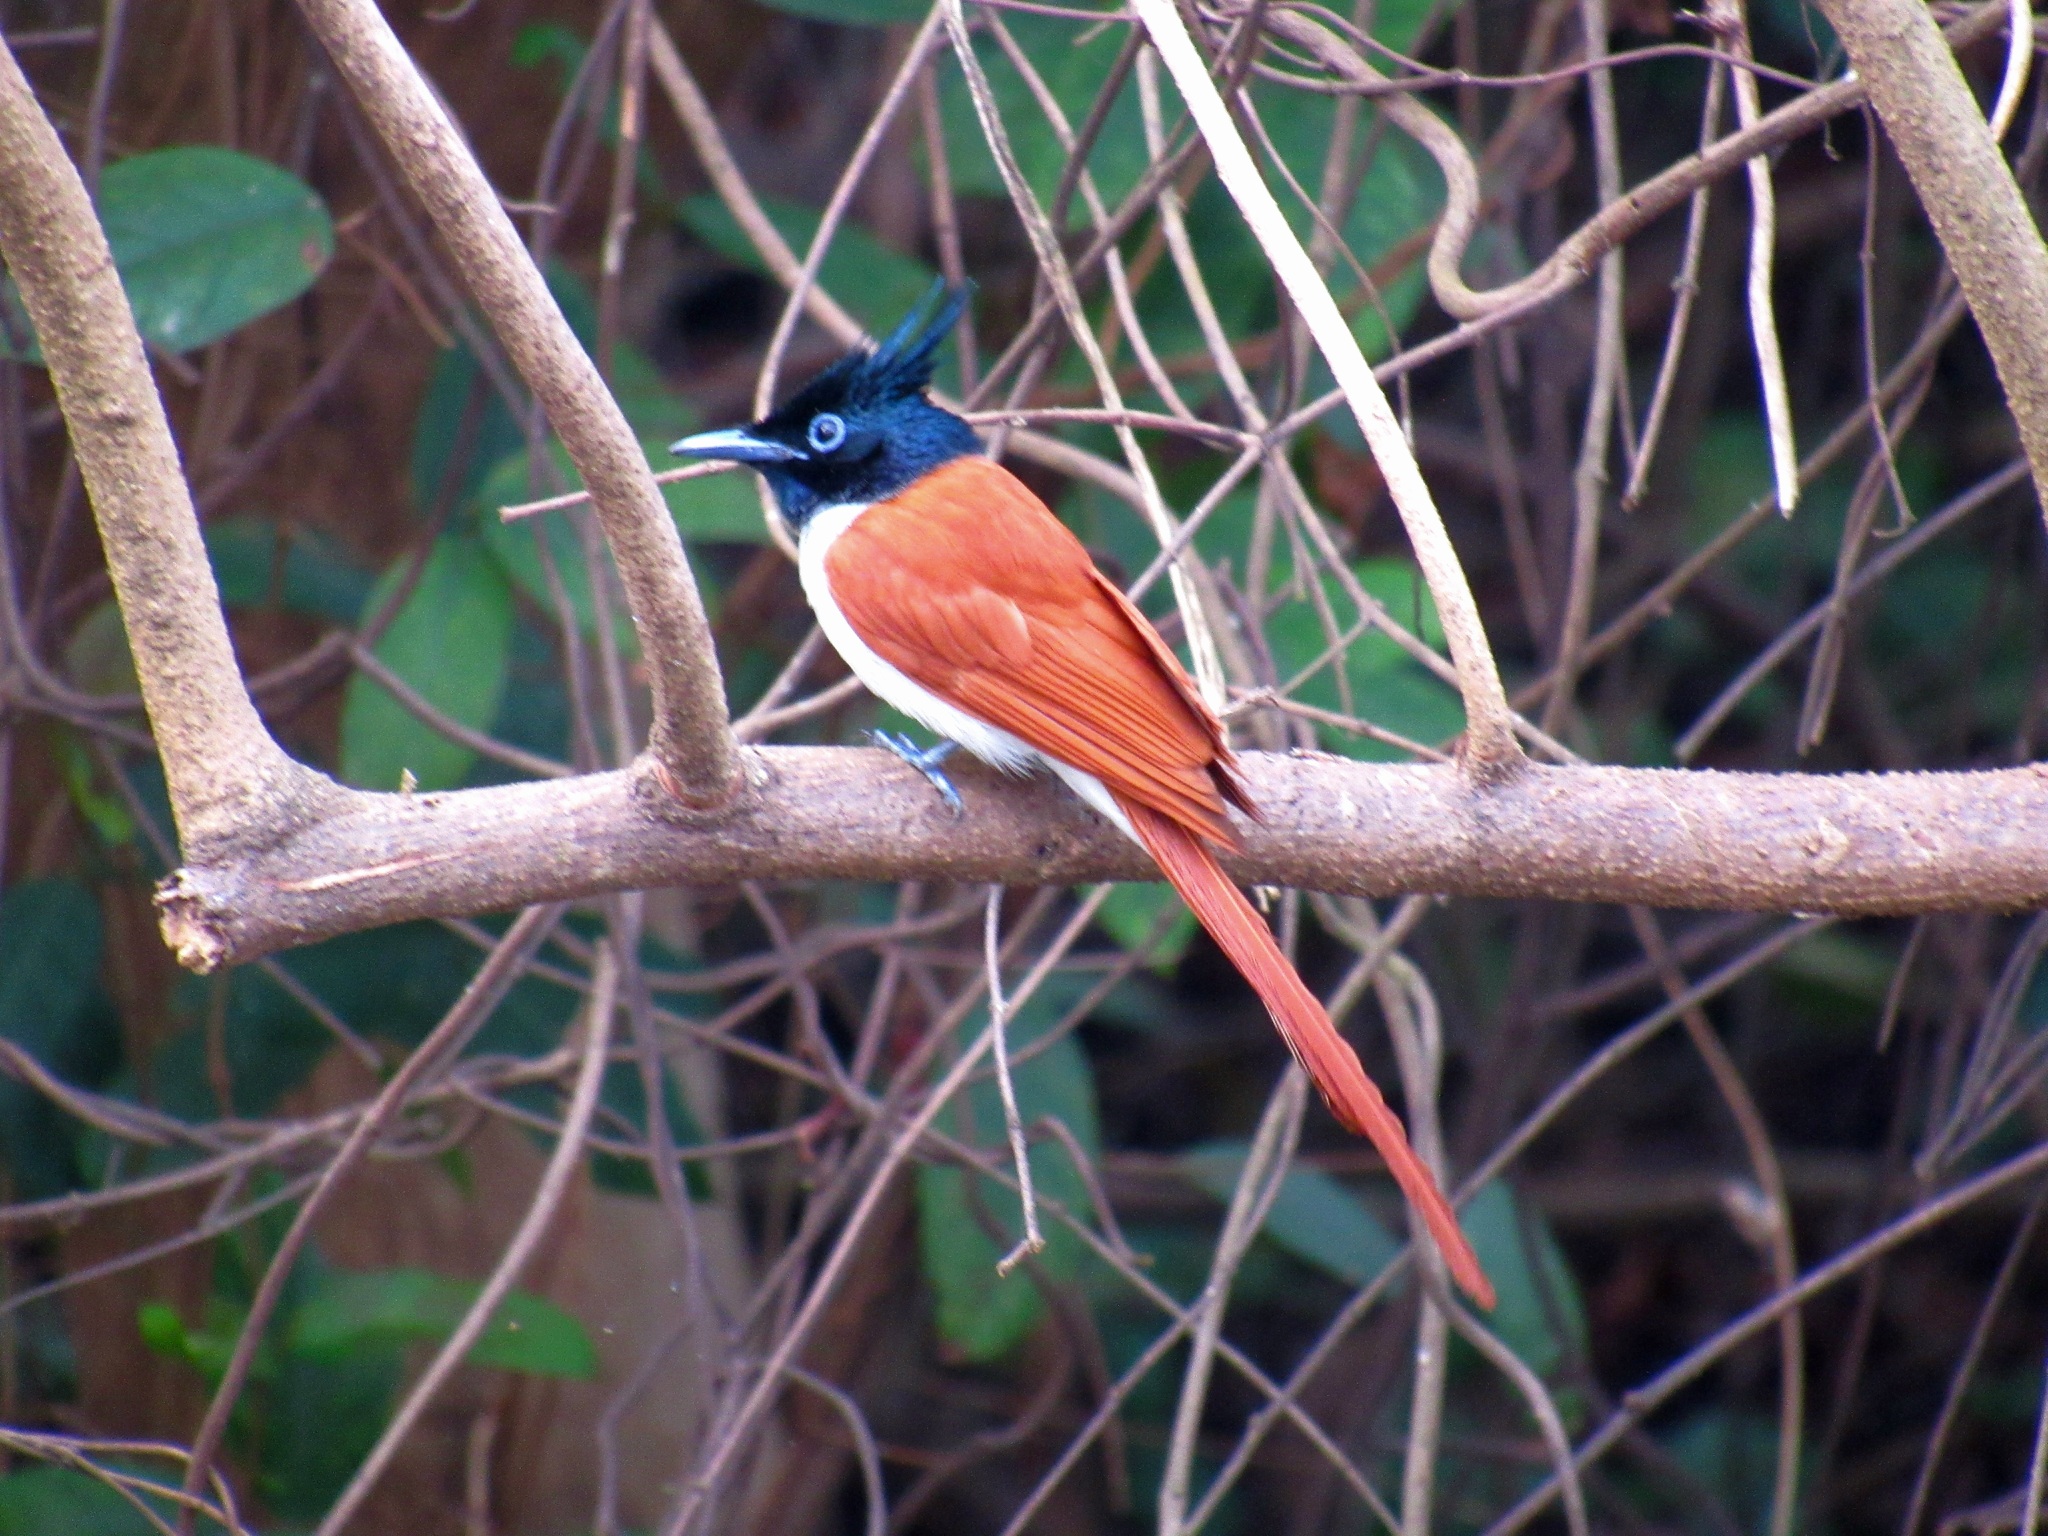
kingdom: Animalia
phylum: Chordata
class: Aves
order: Passeriformes
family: Monarchidae
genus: Terpsiphone
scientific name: Terpsiphone paradisi
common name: Indian paradise flycatcher
